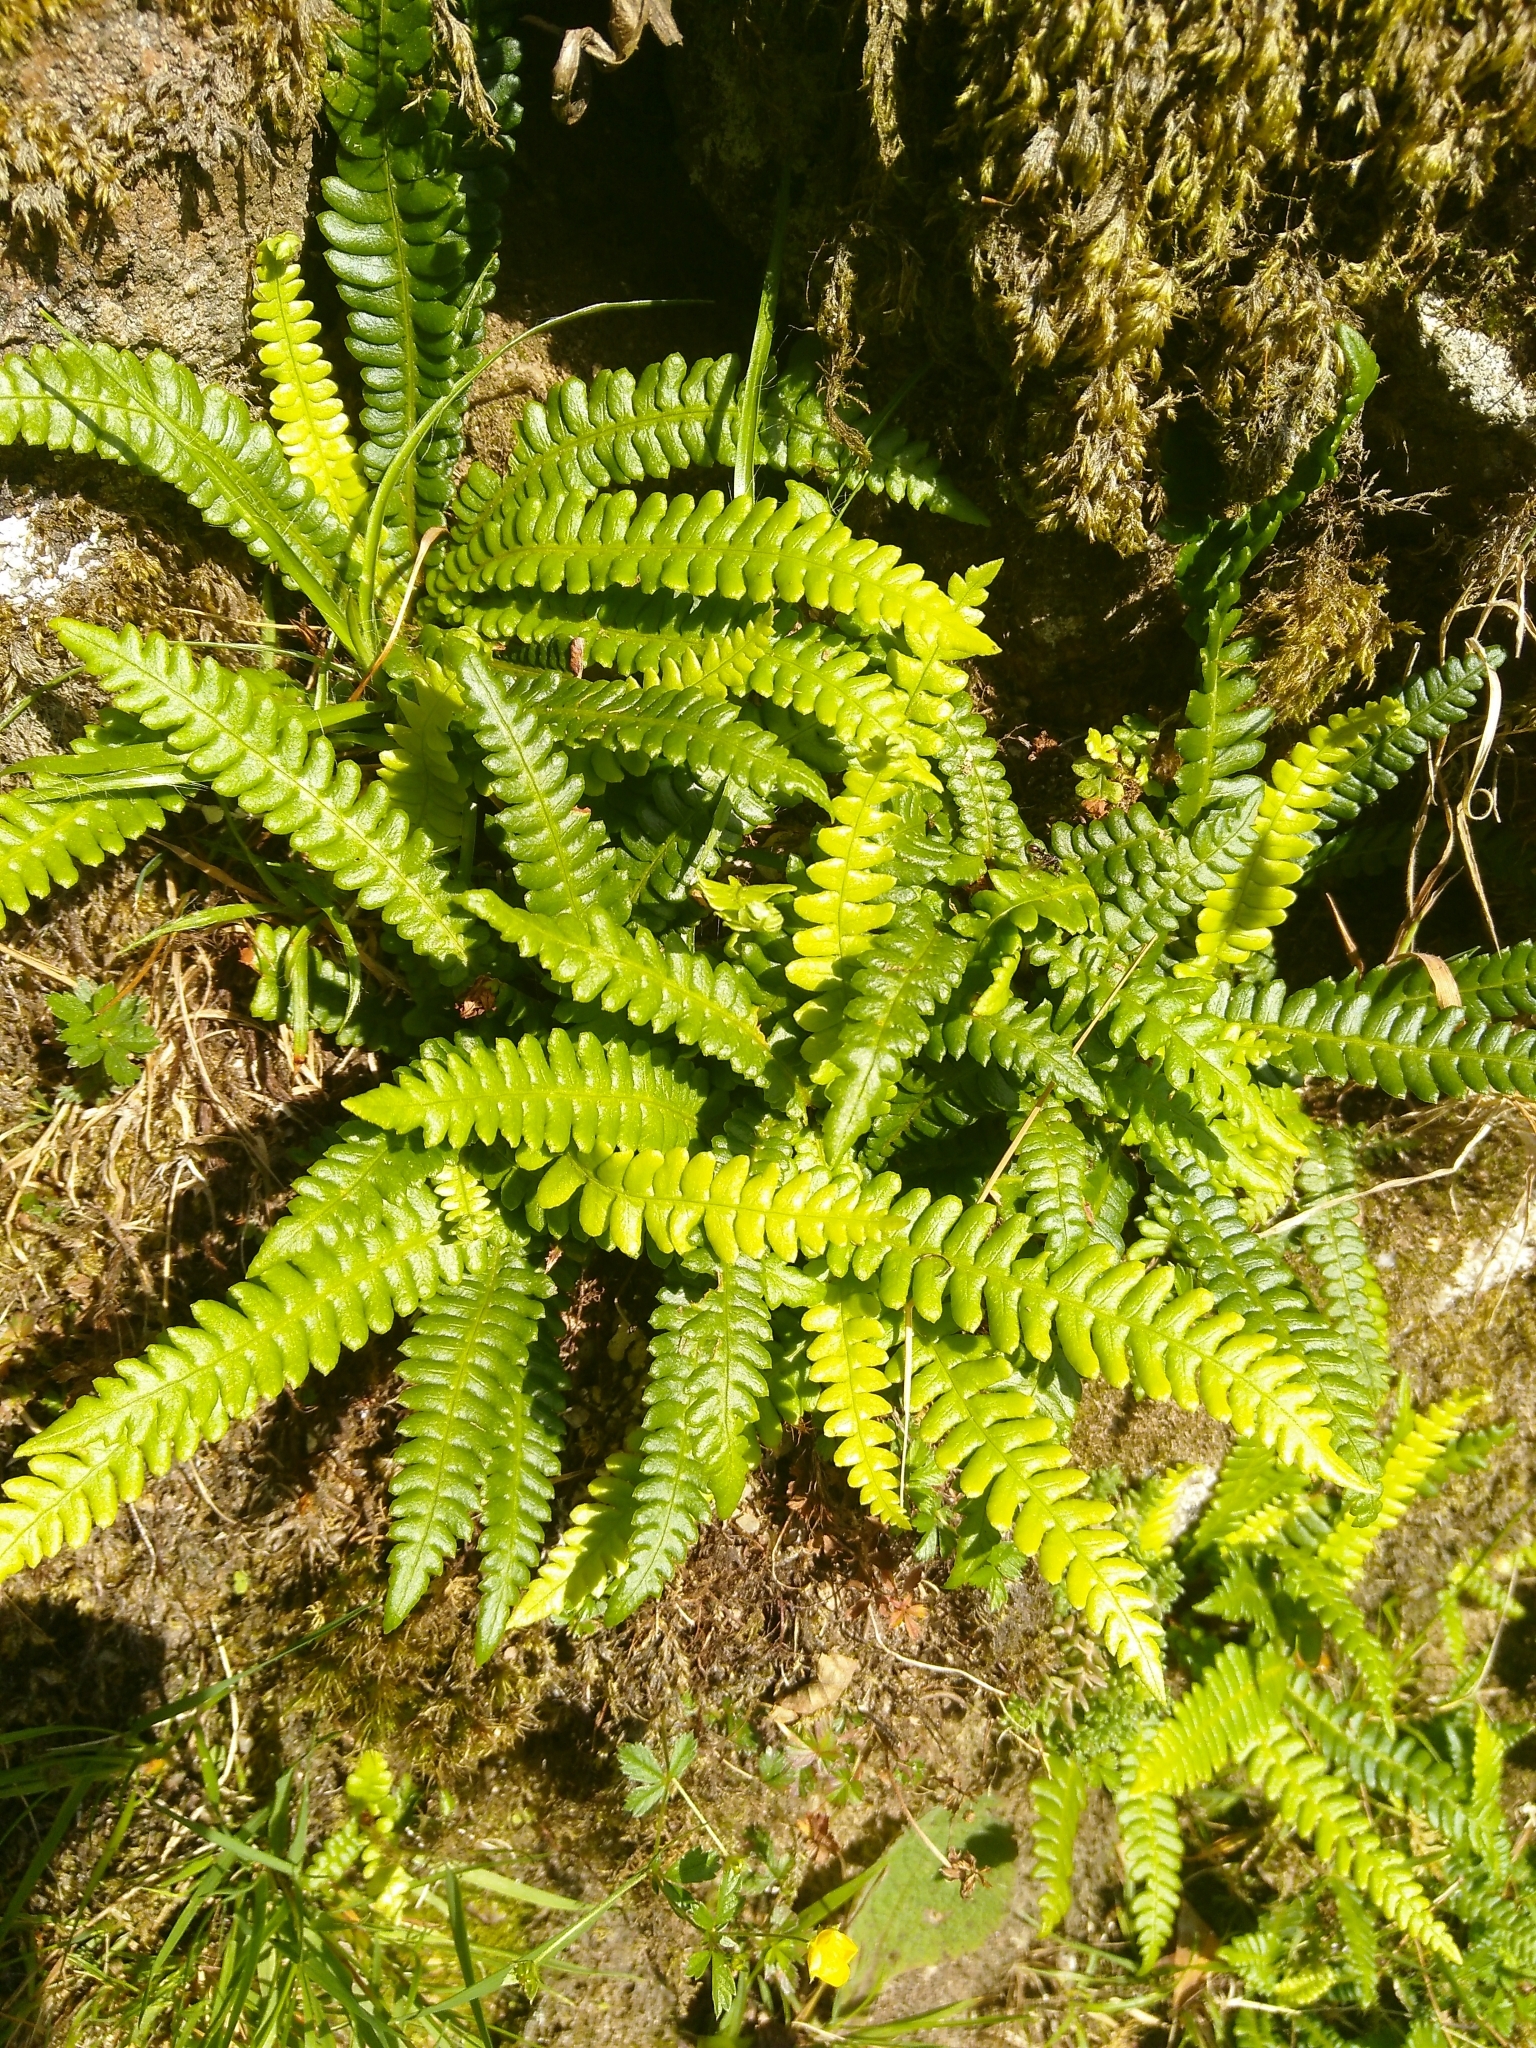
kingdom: Plantae
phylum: Tracheophyta
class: Polypodiopsida
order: Polypodiales
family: Blechnaceae
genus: Struthiopteris
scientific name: Struthiopteris spicant
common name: Deer fern
